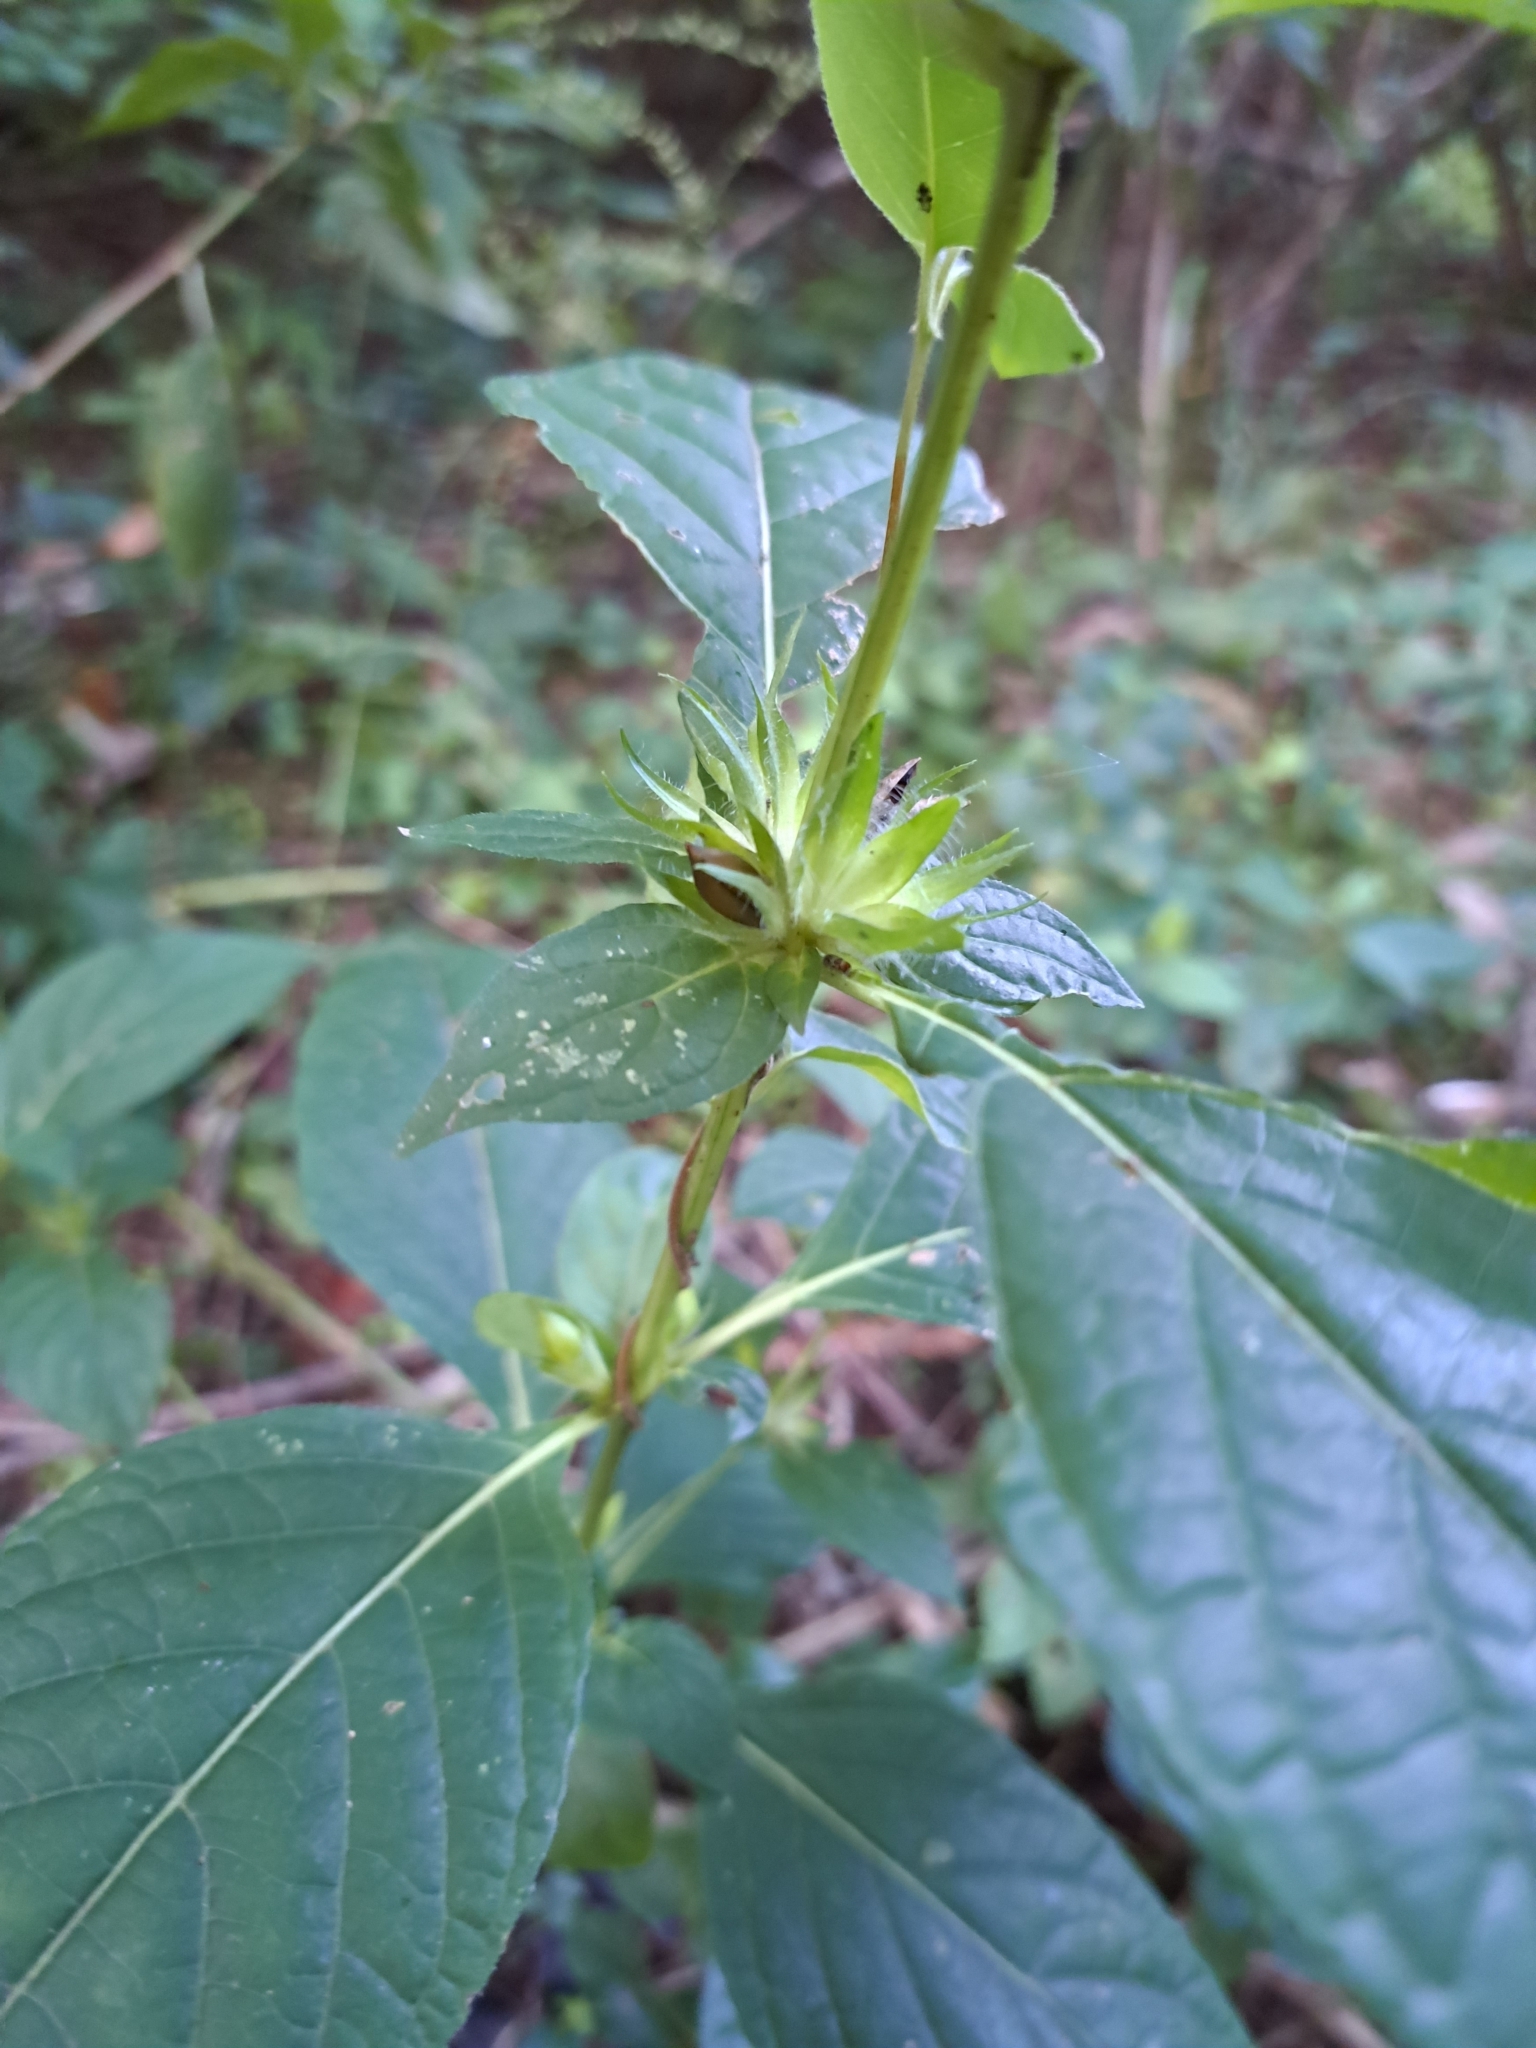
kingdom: Plantae
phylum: Tracheophyta
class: Magnoliopsida
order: Lamiales
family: Acanthaceae
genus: Ruellia
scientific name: Ruellia strepens
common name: Limestone wild petunia
